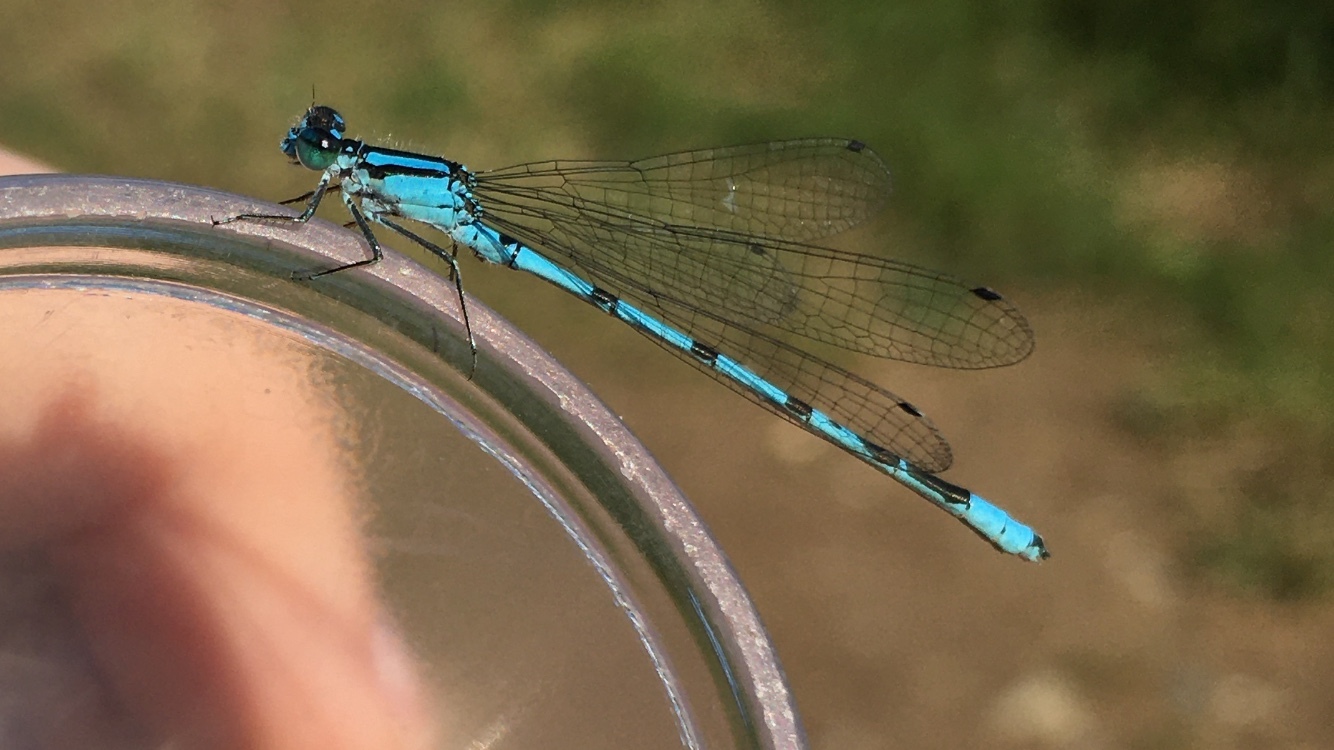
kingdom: Animalia
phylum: Arthropoda
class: Insecta
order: Odonata
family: Coenagrionidae
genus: Enallagma
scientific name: Enallagma ebrium
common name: Marsh bluet
